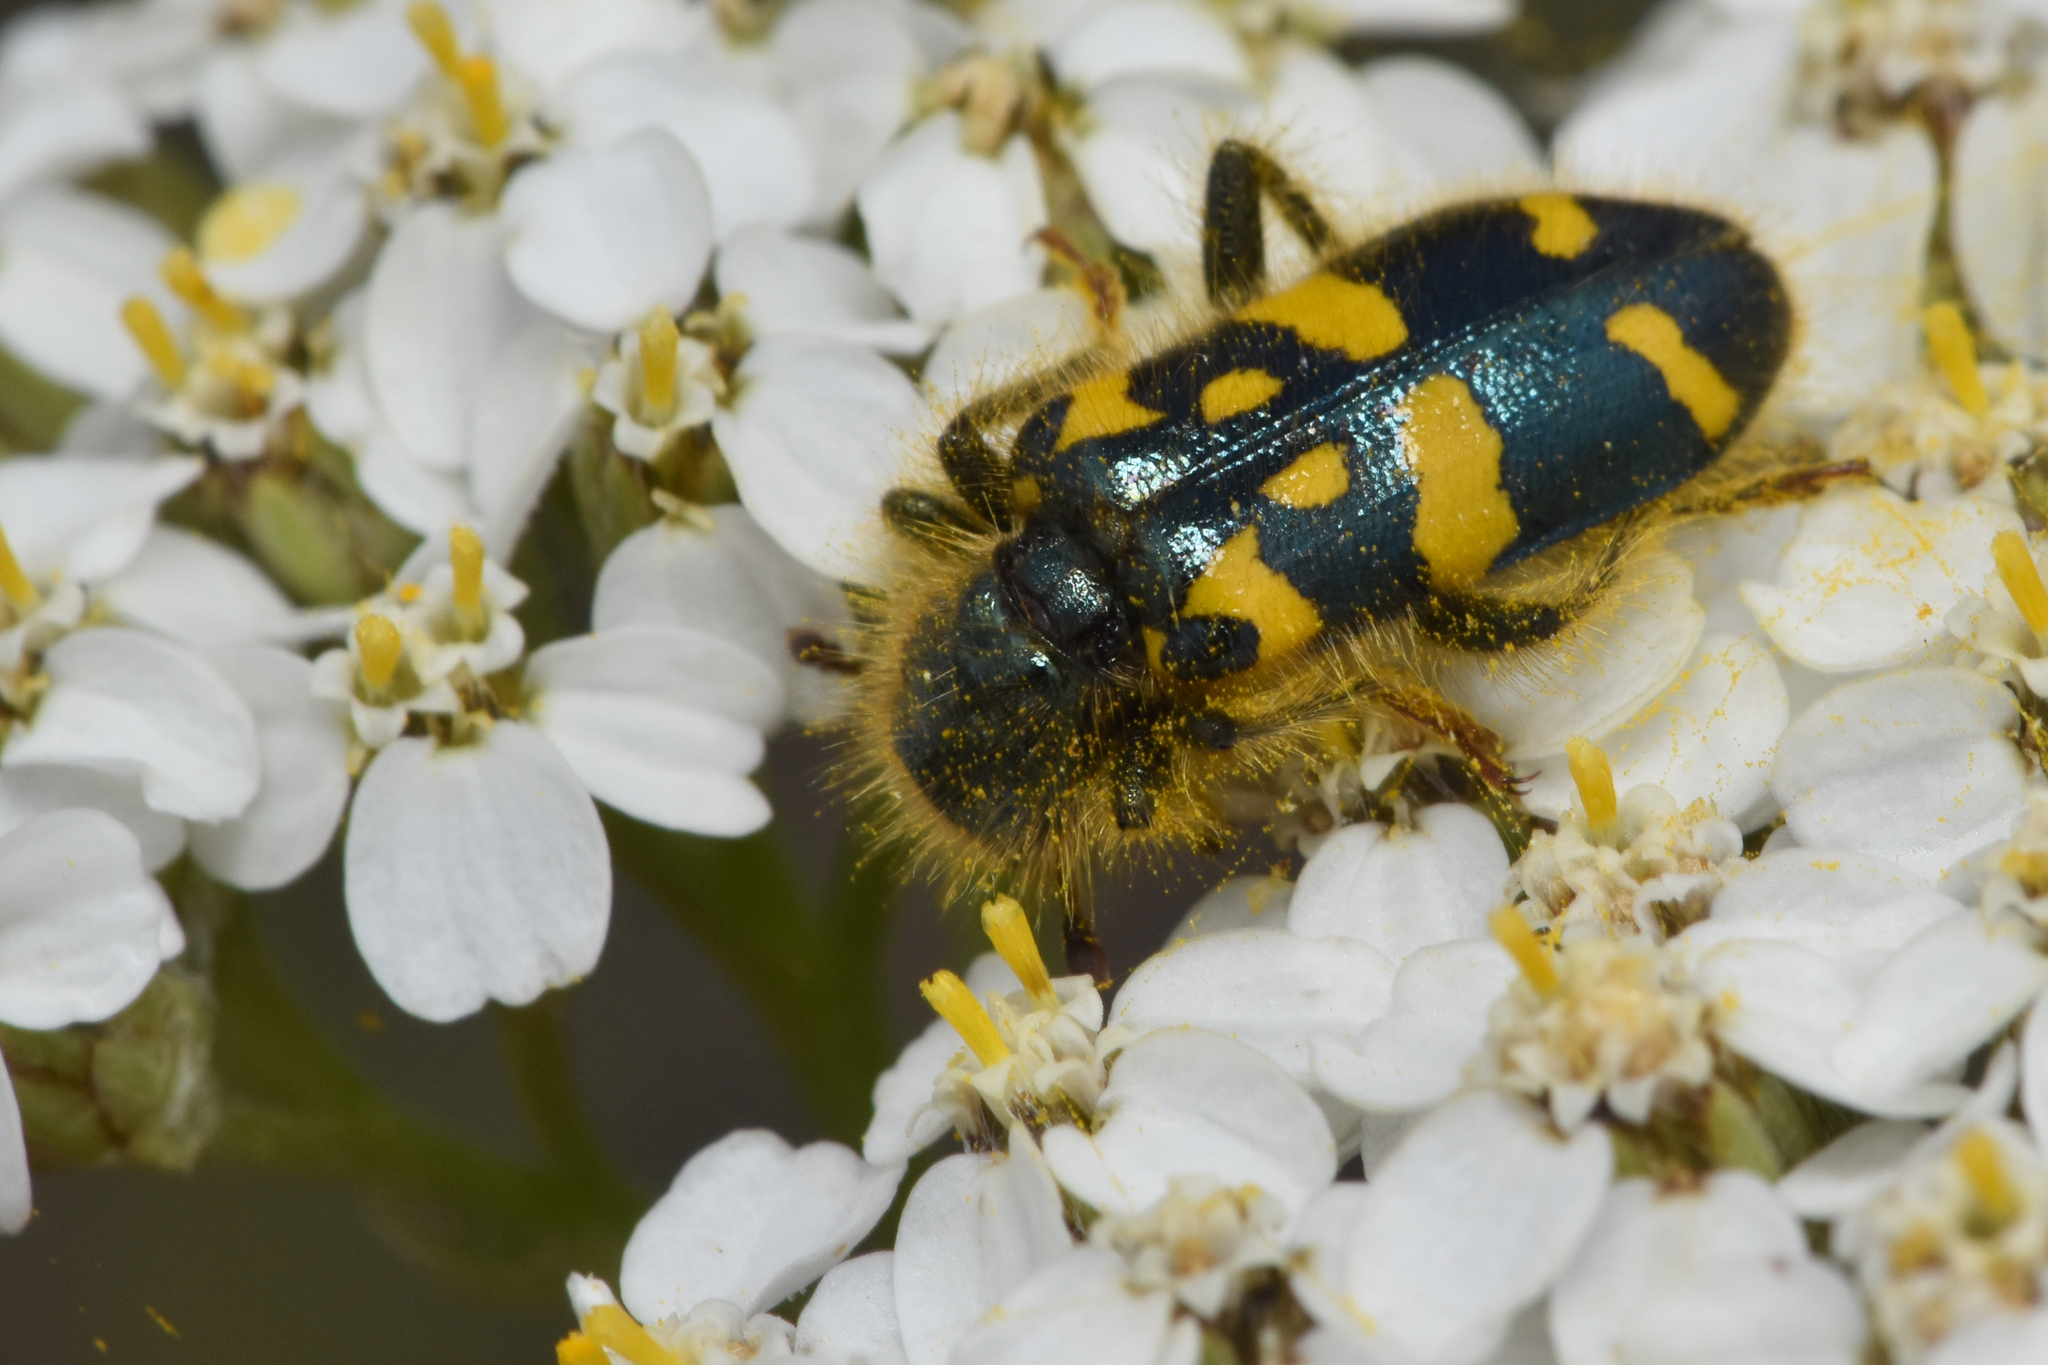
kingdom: Animalia
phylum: Arthropoda
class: Insecta
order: Coleoptera
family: Cleridae
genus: Trichodes
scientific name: Trichodes ornatus
